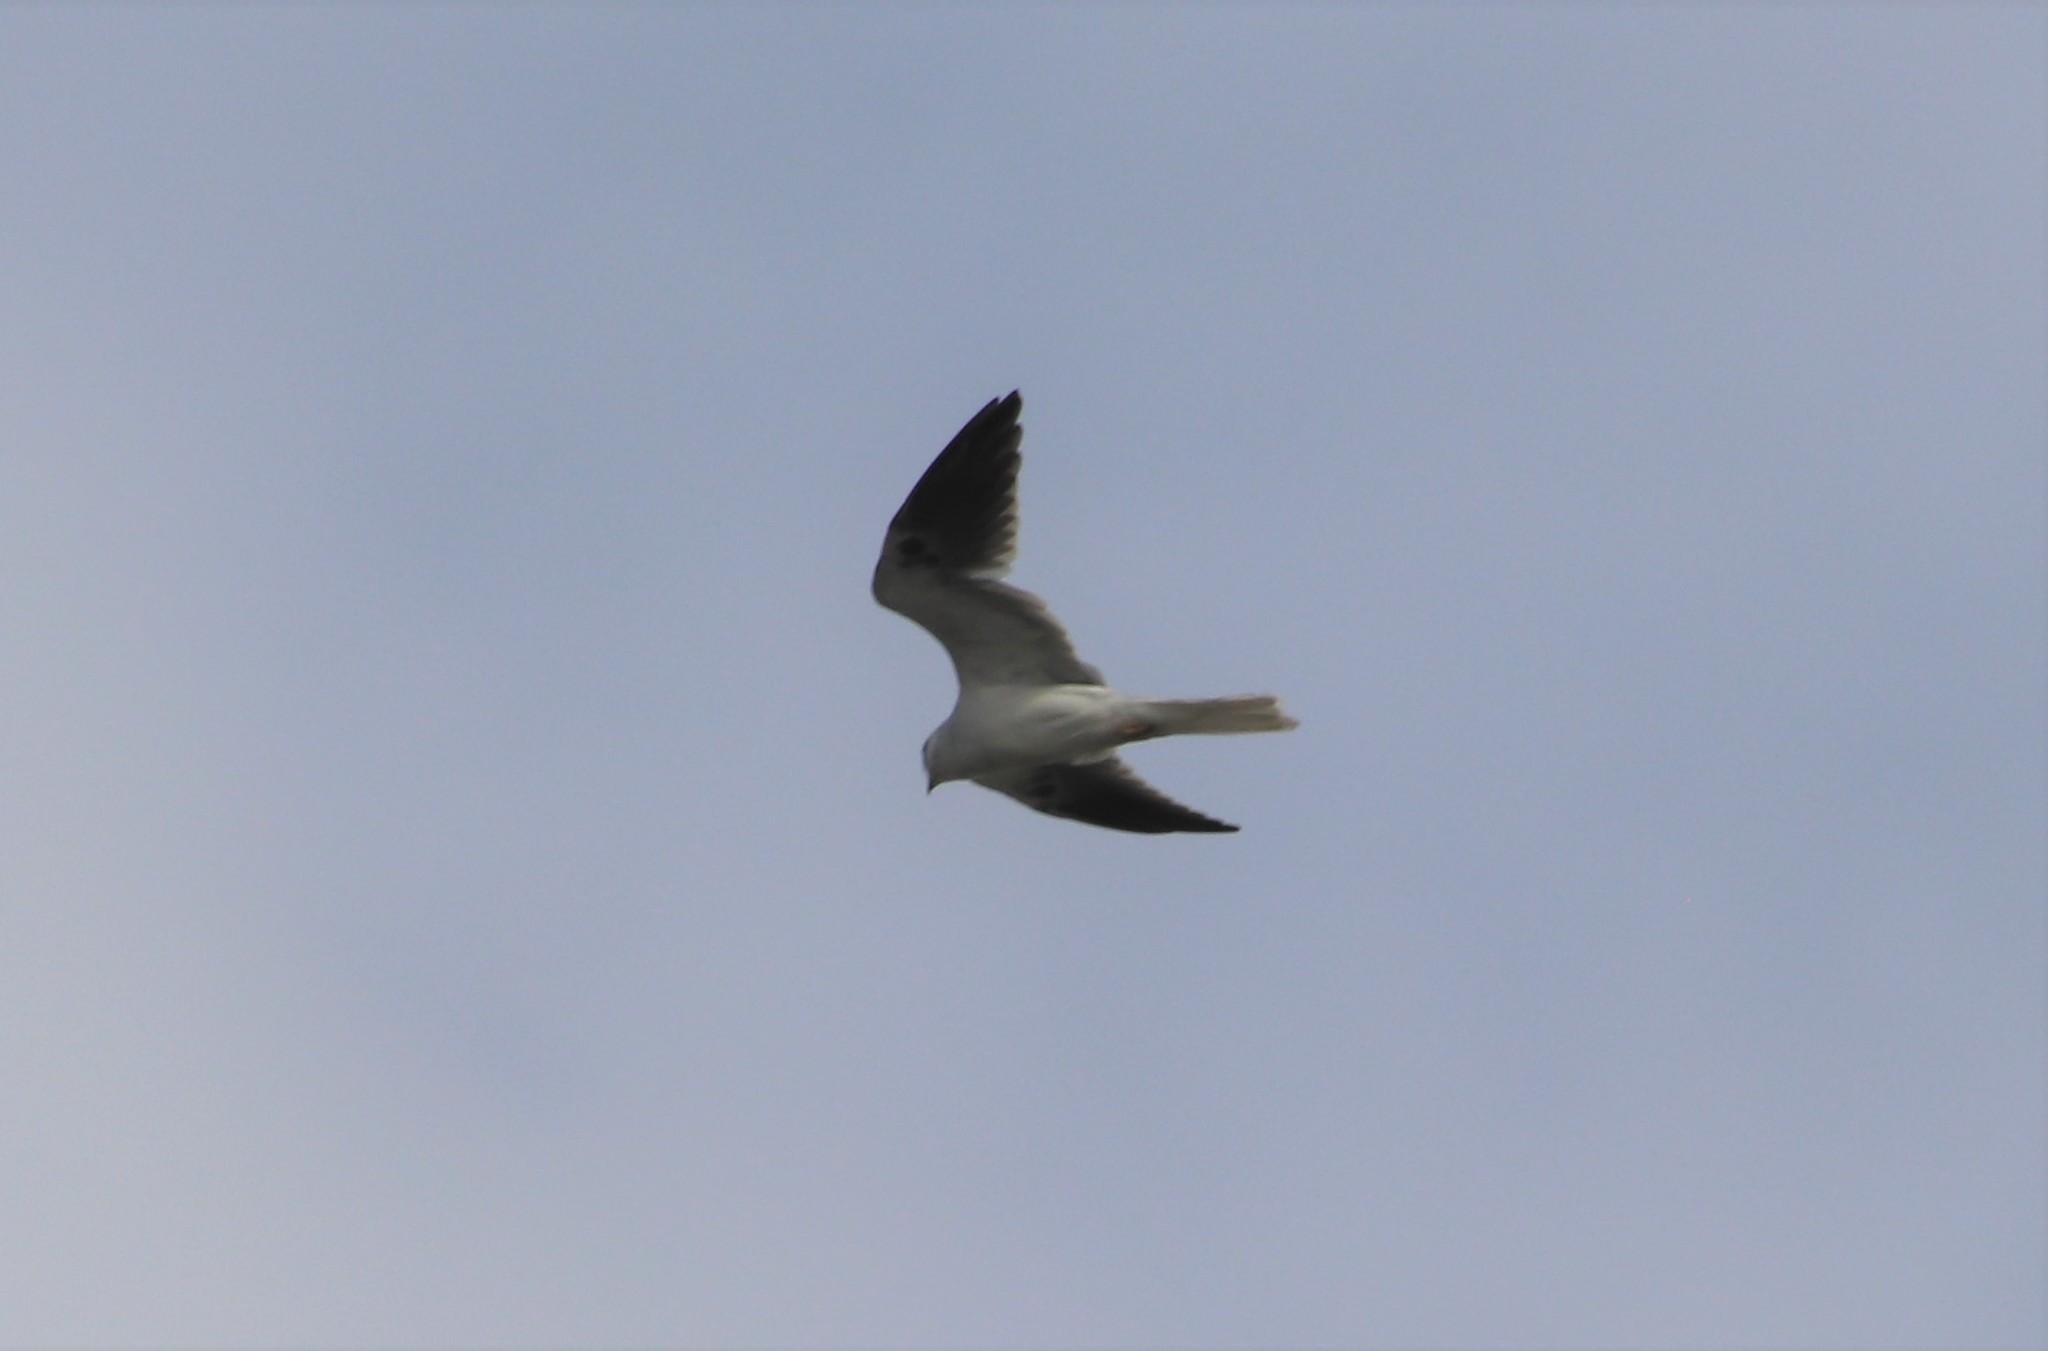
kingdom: Animalia
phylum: Chordata
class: Aves
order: Accipitriformes
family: Accipitridae
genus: Elanus
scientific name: Elanus leucurus
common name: White-tailed kite
